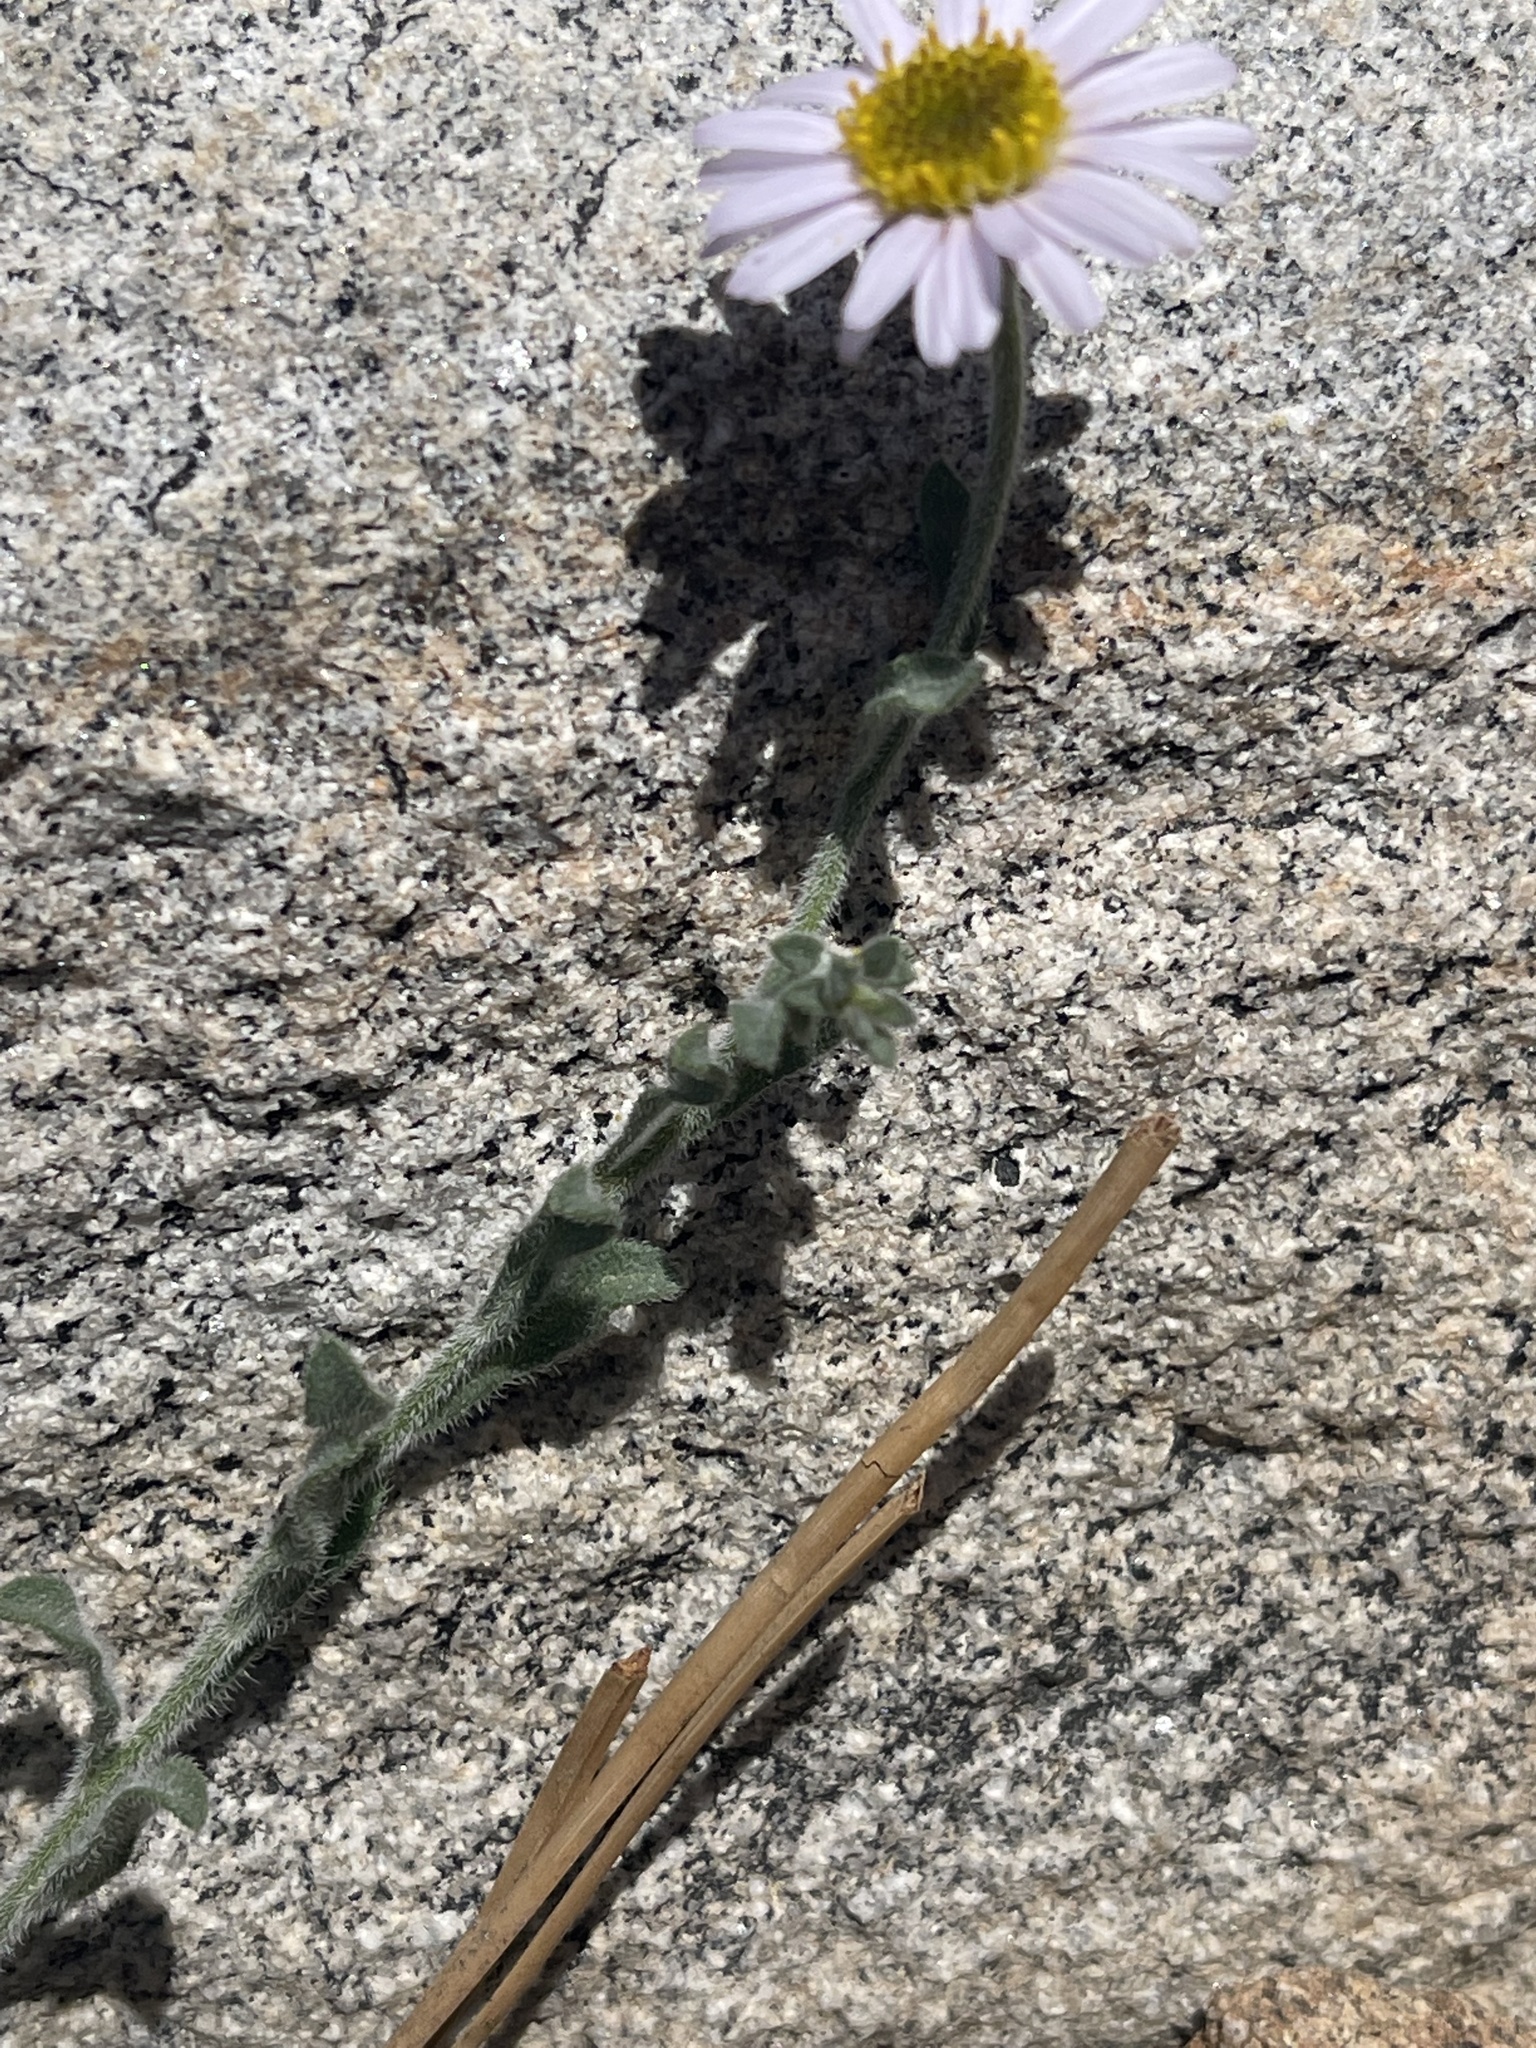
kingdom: Plantae
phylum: Tracheophyta
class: Magnoliopsida
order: Ericales
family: Polemoniaceae
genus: Linanthus
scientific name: Linanthus pungens
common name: Granite prickly phlox
